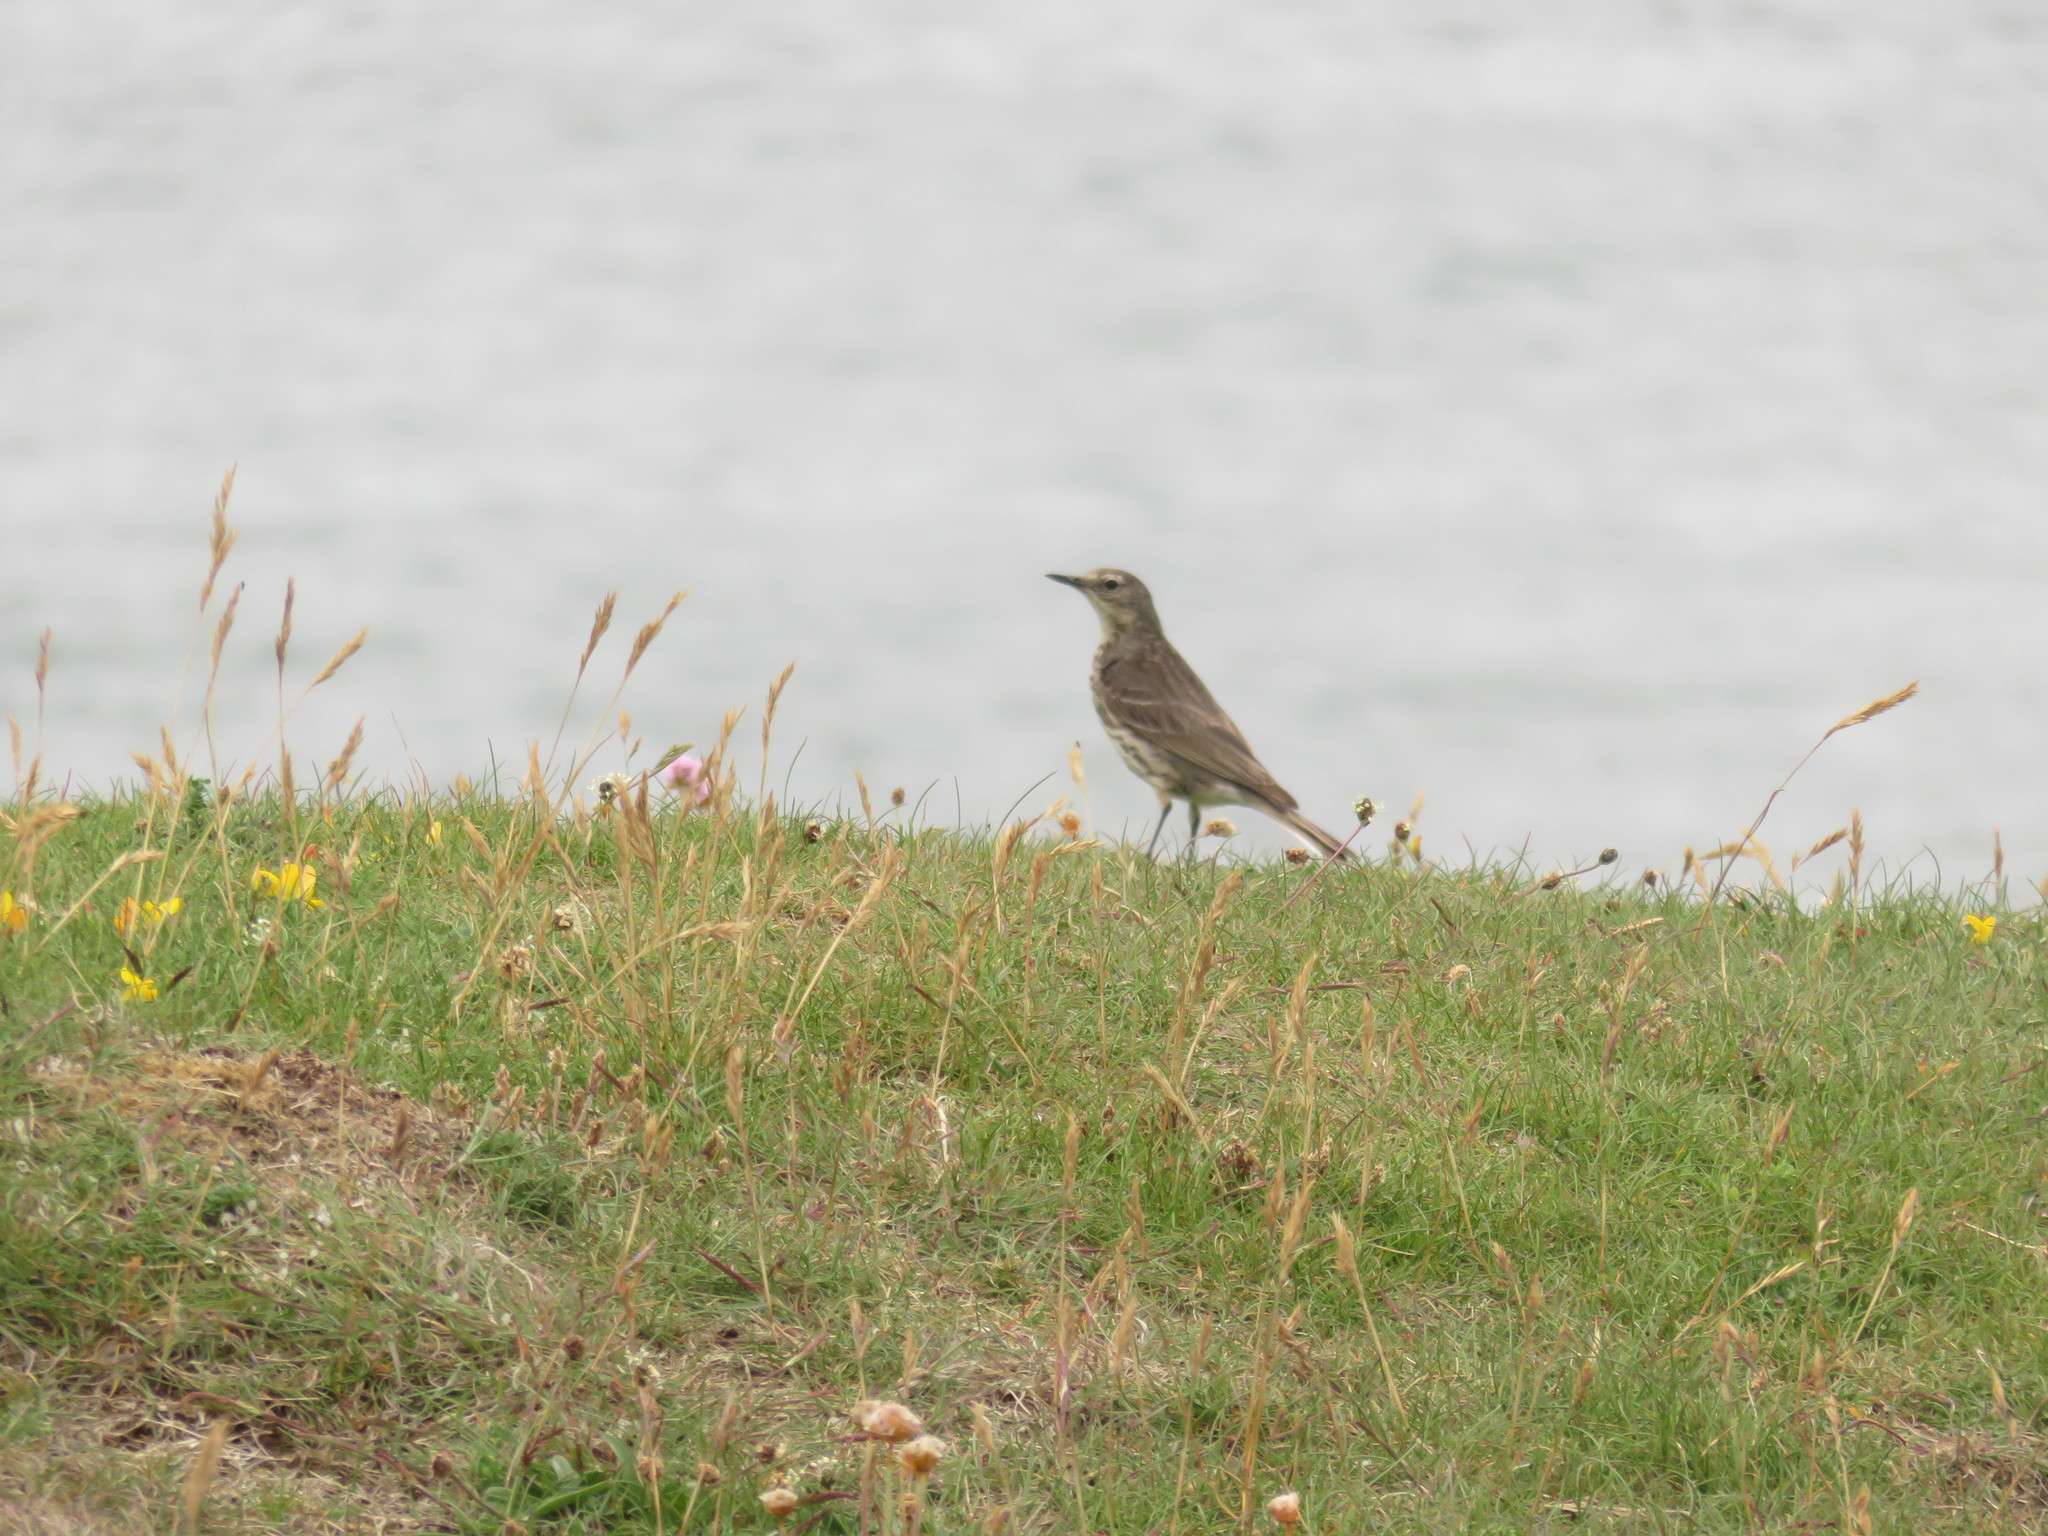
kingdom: Animalia
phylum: Chordata
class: Aves
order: Passeriformes
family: Motacillidae
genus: Anthus
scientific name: Anthus petrosus
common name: Eurasian rock pipit
